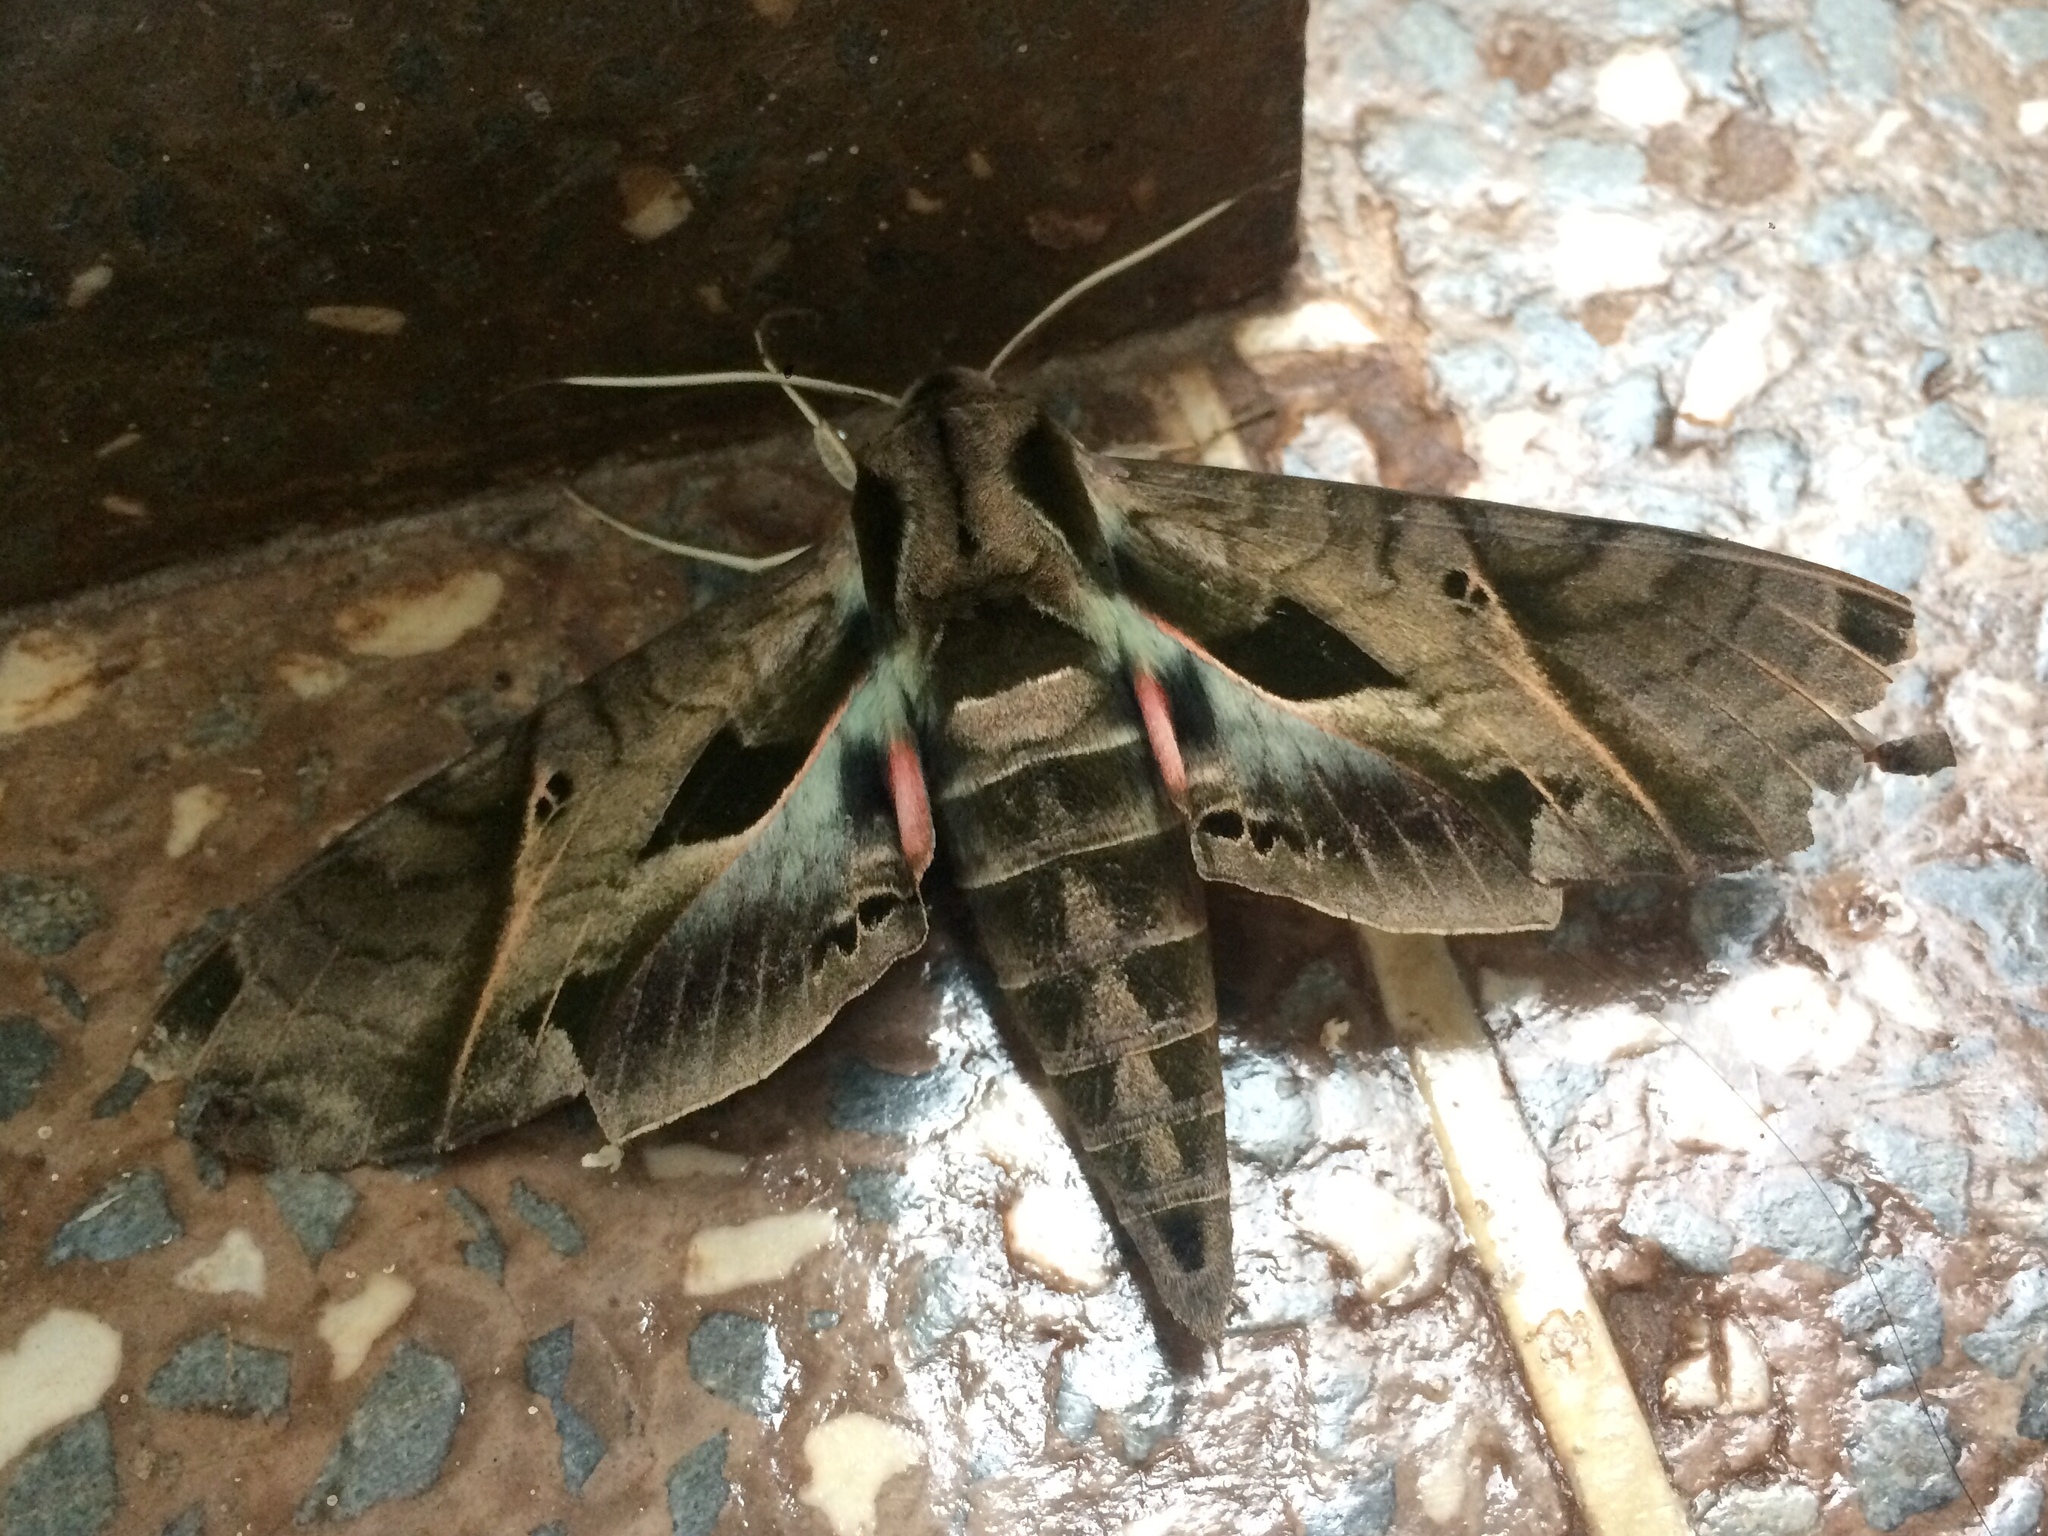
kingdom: Animalia
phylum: Arthropoda
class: Insecta
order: Lepidoptera
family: Sphingidae
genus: Eumorpha
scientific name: Eumorpha analis
